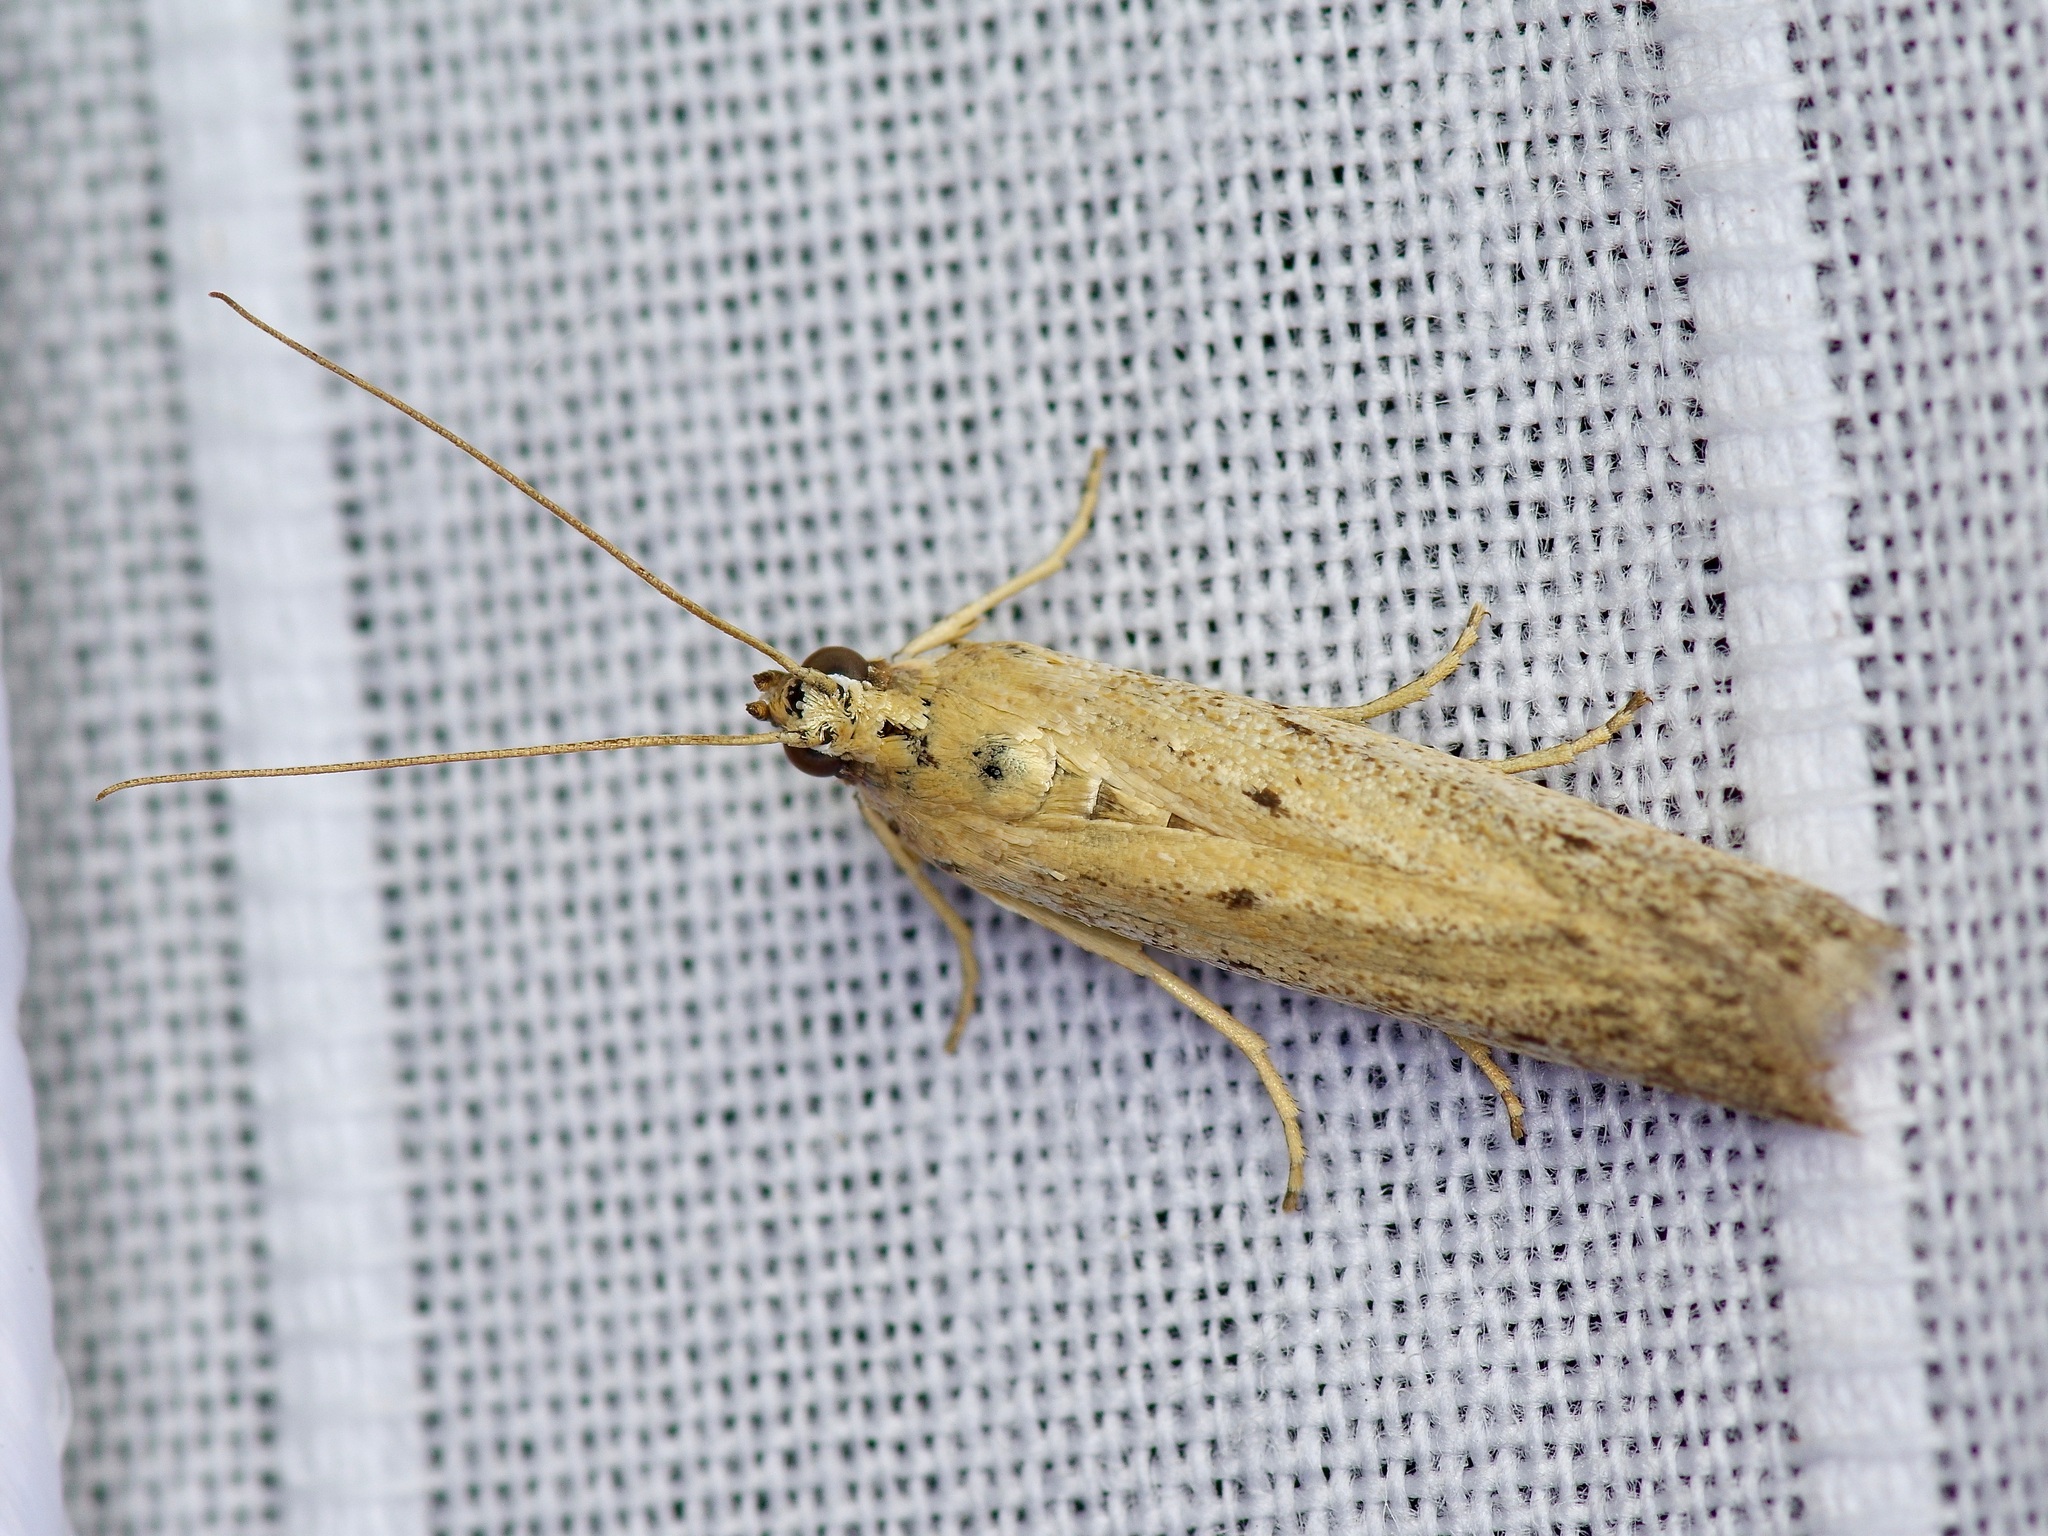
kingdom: Animalia
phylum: Arthropoda
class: Insecta
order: Lepidoptera
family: Pyralidae
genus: Homoeosoma
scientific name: Homoeosoma electella
